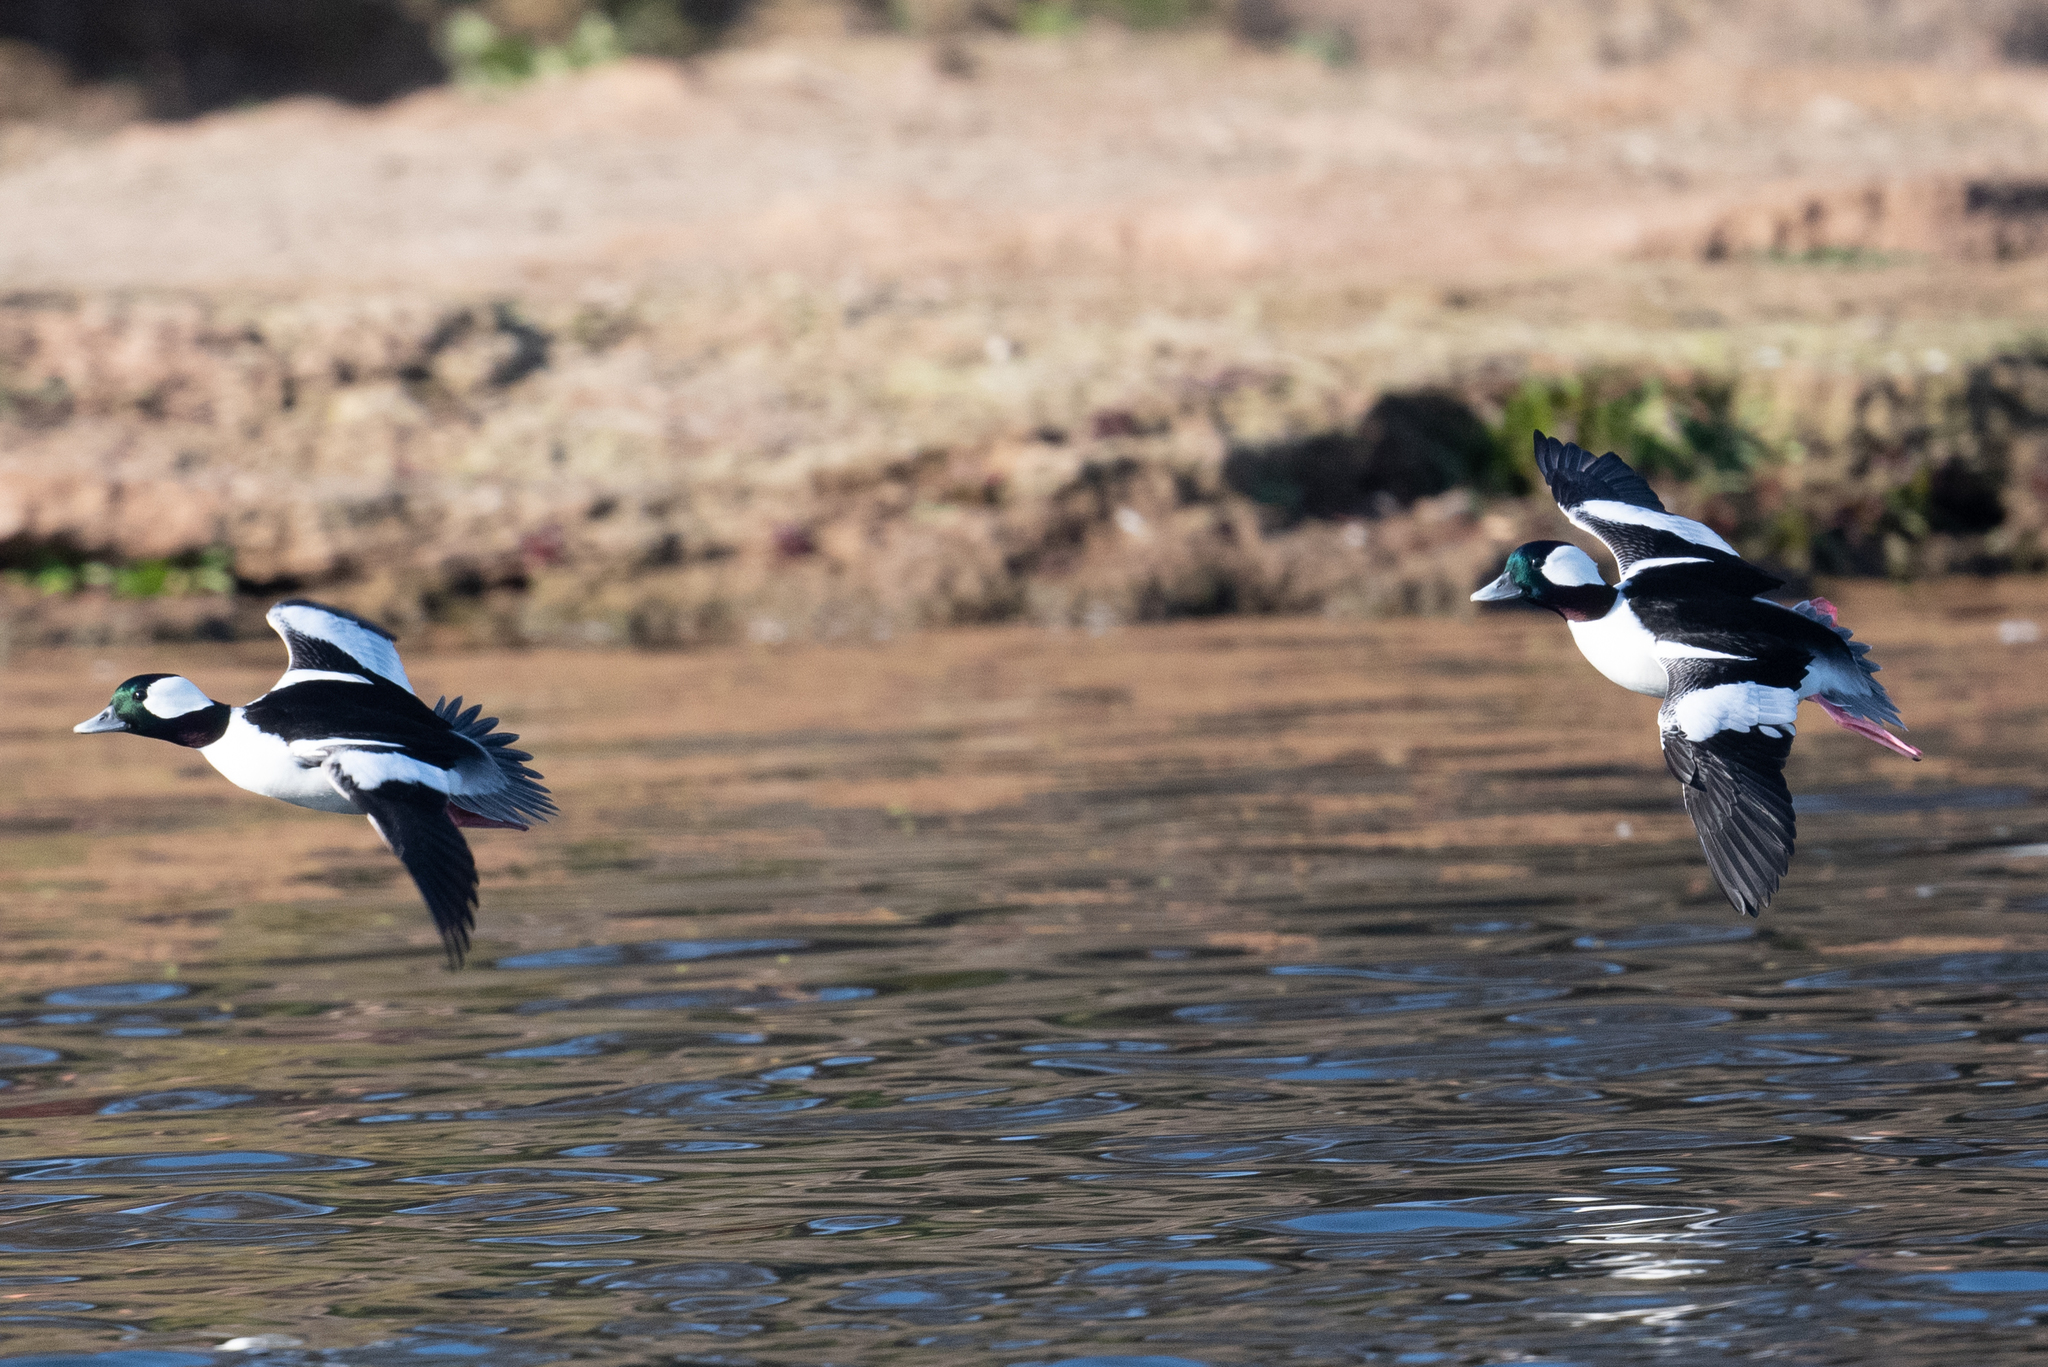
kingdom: Animalia
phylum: Chordata
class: Aves
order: Anseriformes
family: Anatidae
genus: Bucephala
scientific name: Bucephala albeola
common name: Bufflehead
